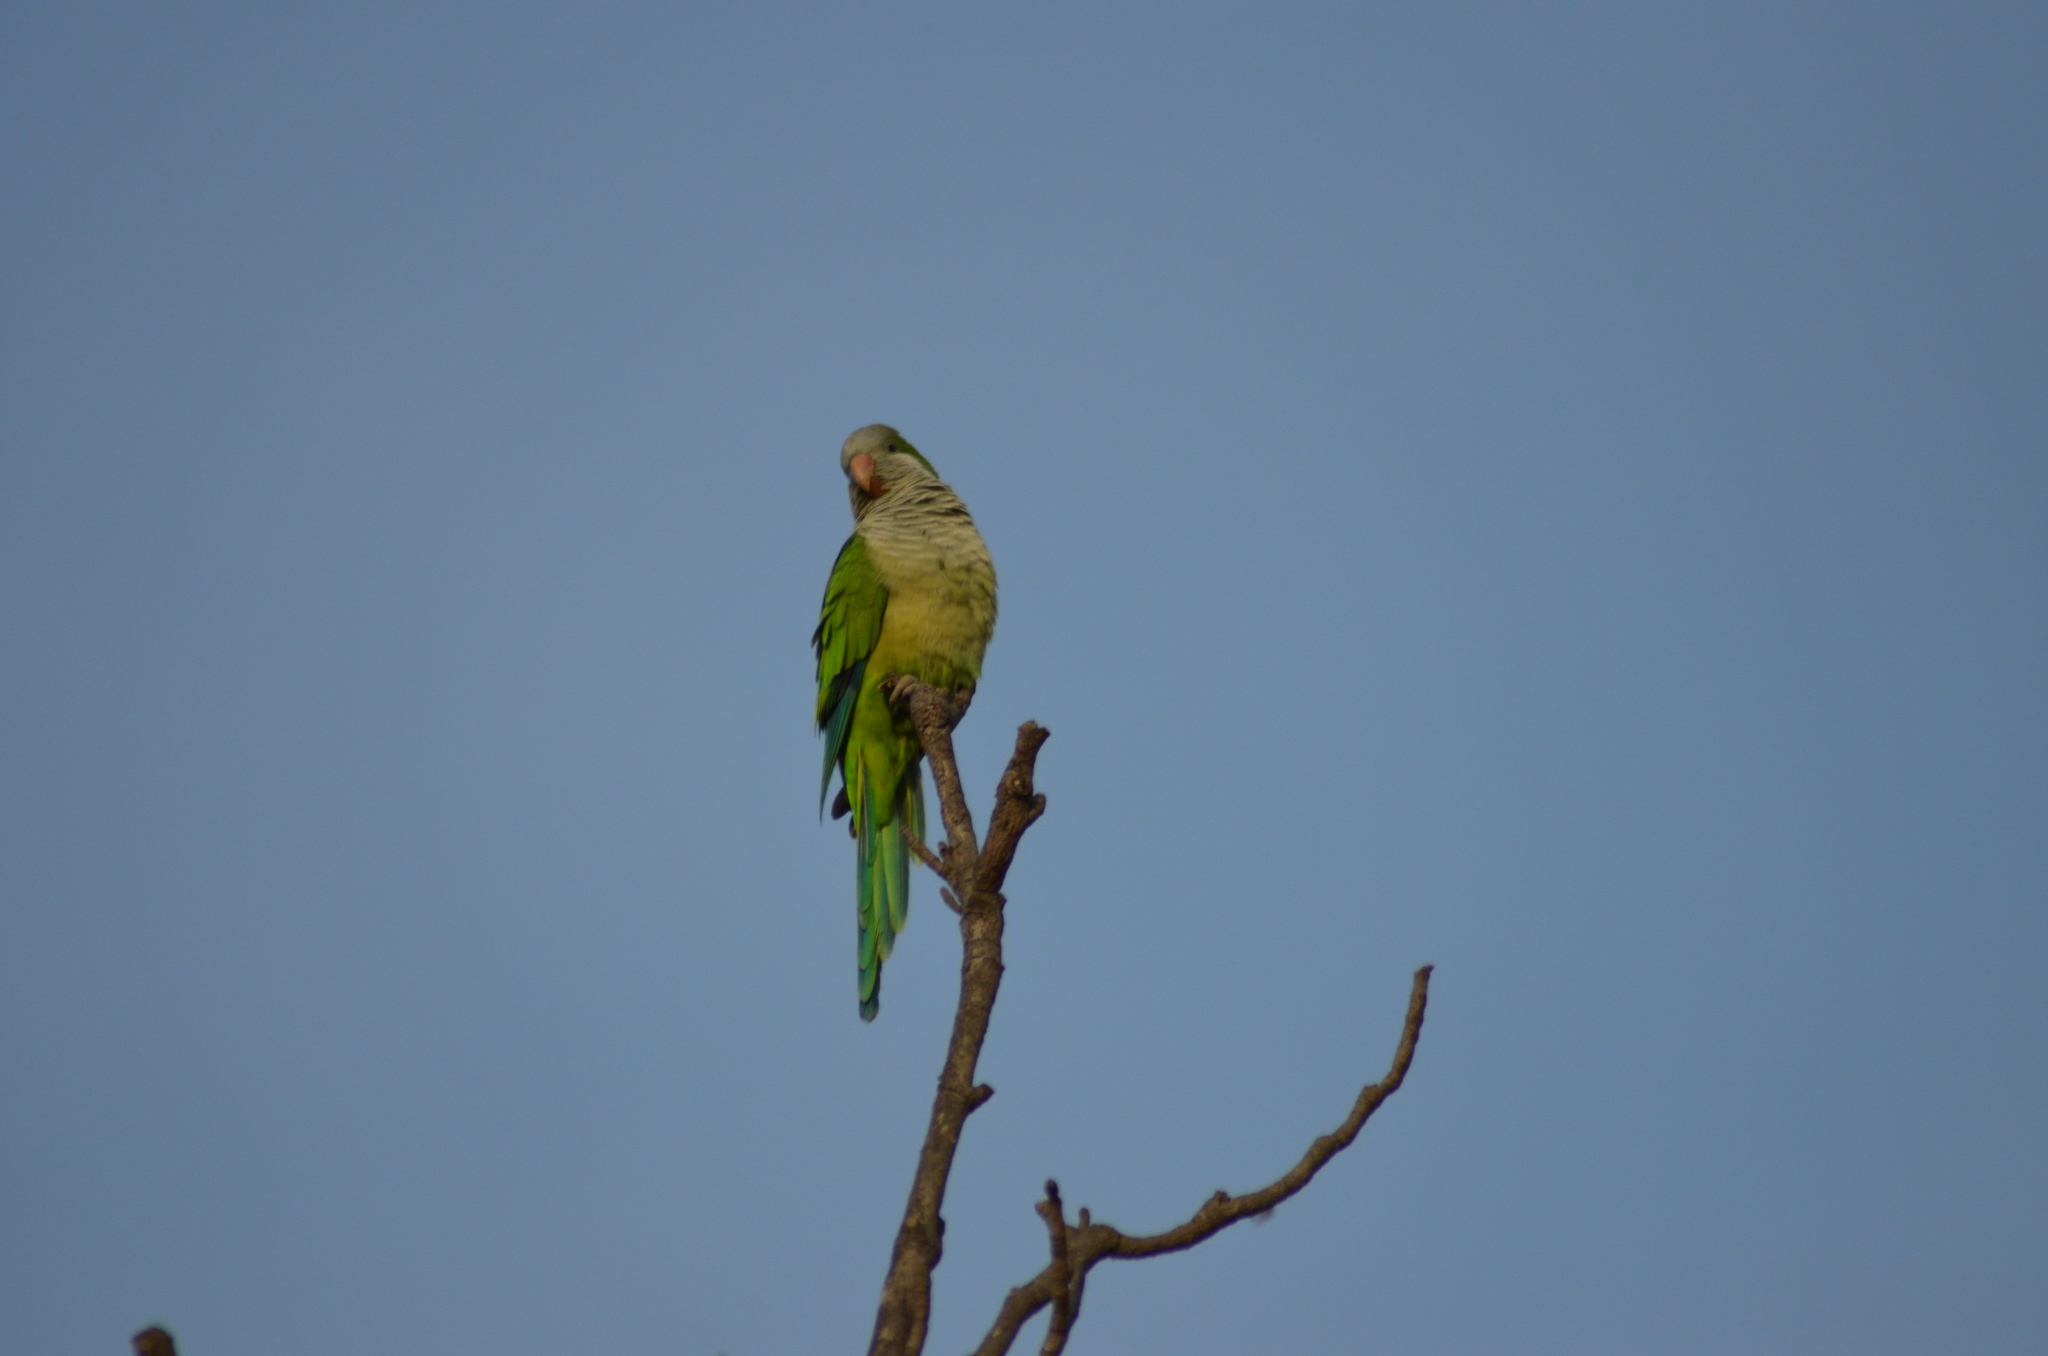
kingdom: Animalia
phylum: Chordata
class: Aves
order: Psittaciformes
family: Psittacidae
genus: Myiopsitta
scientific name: Myiopsitta monachus
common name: Monk parakeet
